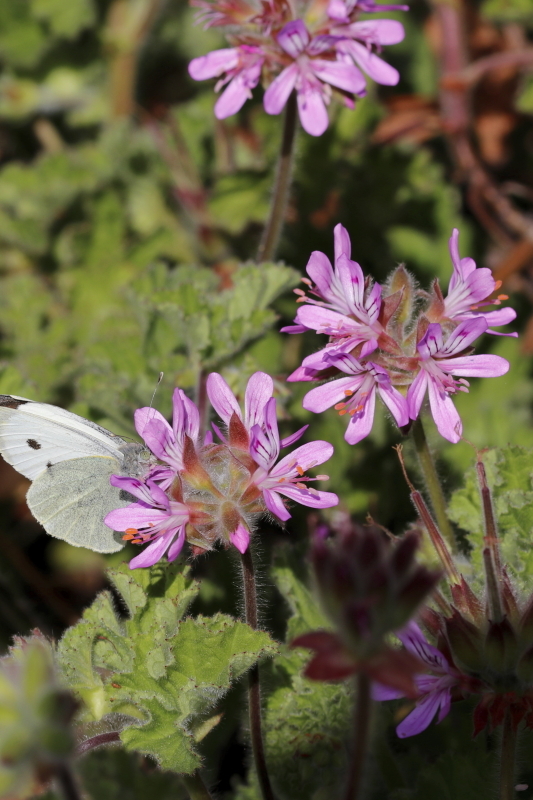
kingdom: Plantae
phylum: Tracheophyta
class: Magnoliopsida
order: Geraniales
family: Geraniaceae
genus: Pelargonium
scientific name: Pelargonium capitatum
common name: Rose scented geranium
